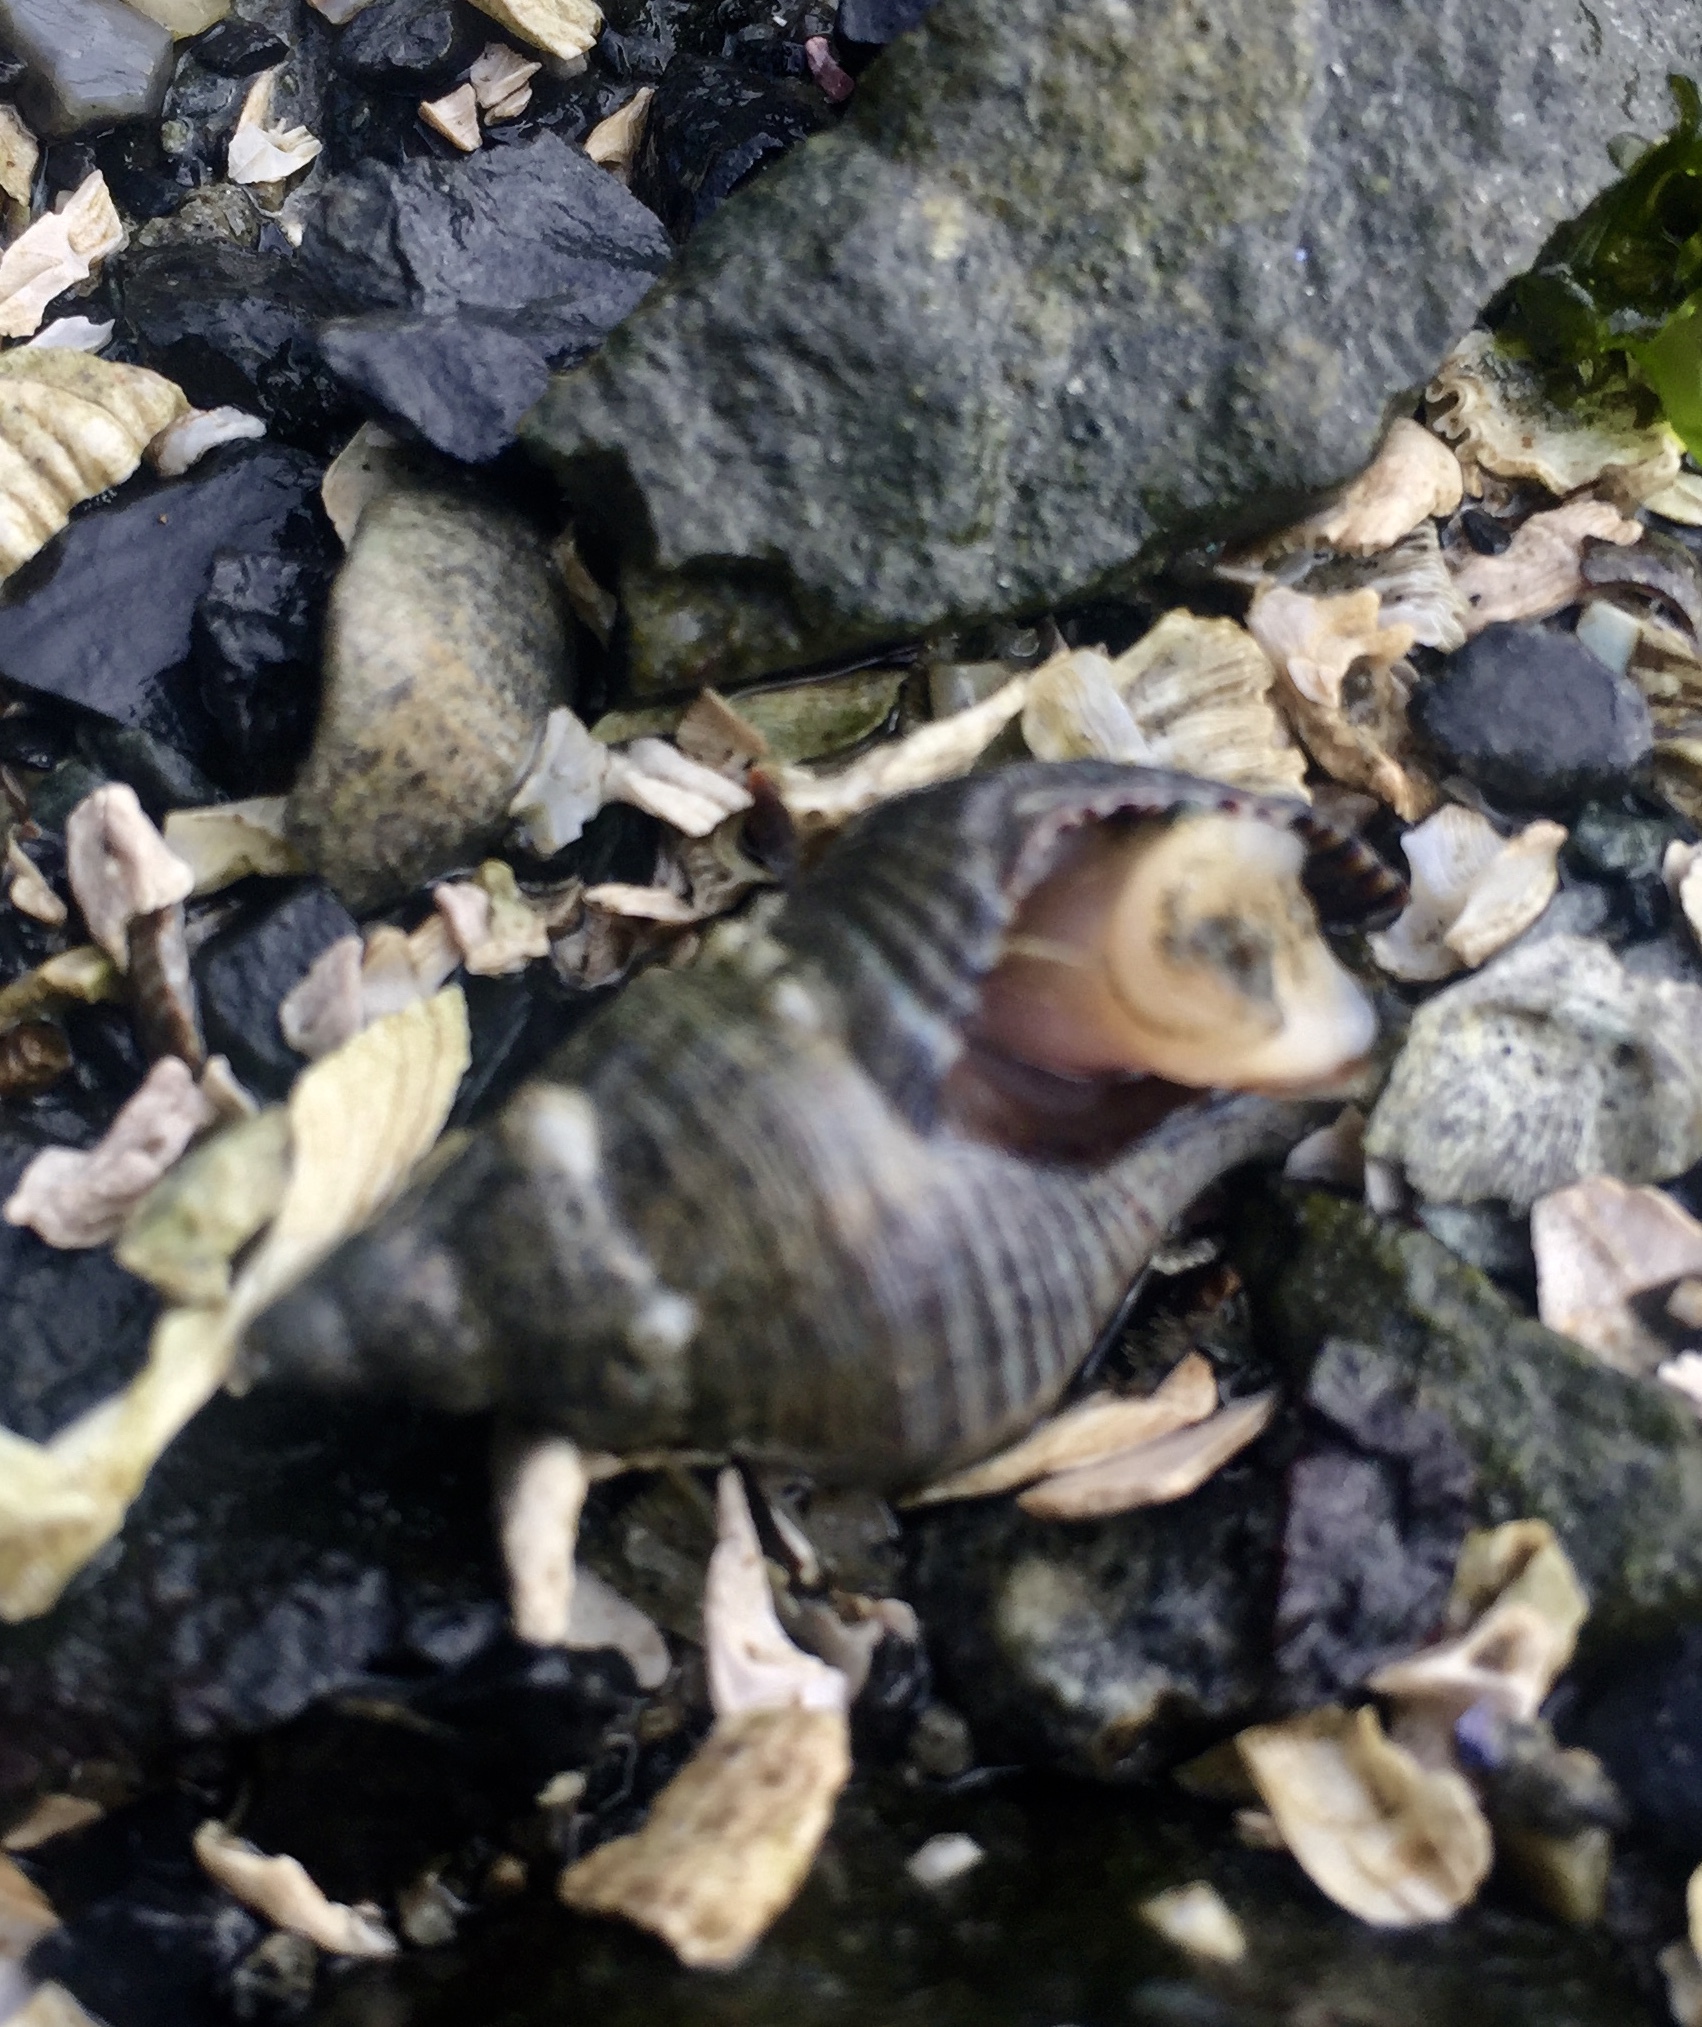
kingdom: Animalia
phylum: Mollusca
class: Gastropoda
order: Neogastropoda
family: Tudiclidae
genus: Lirabuccinum
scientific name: Lirabuccinum dirum
